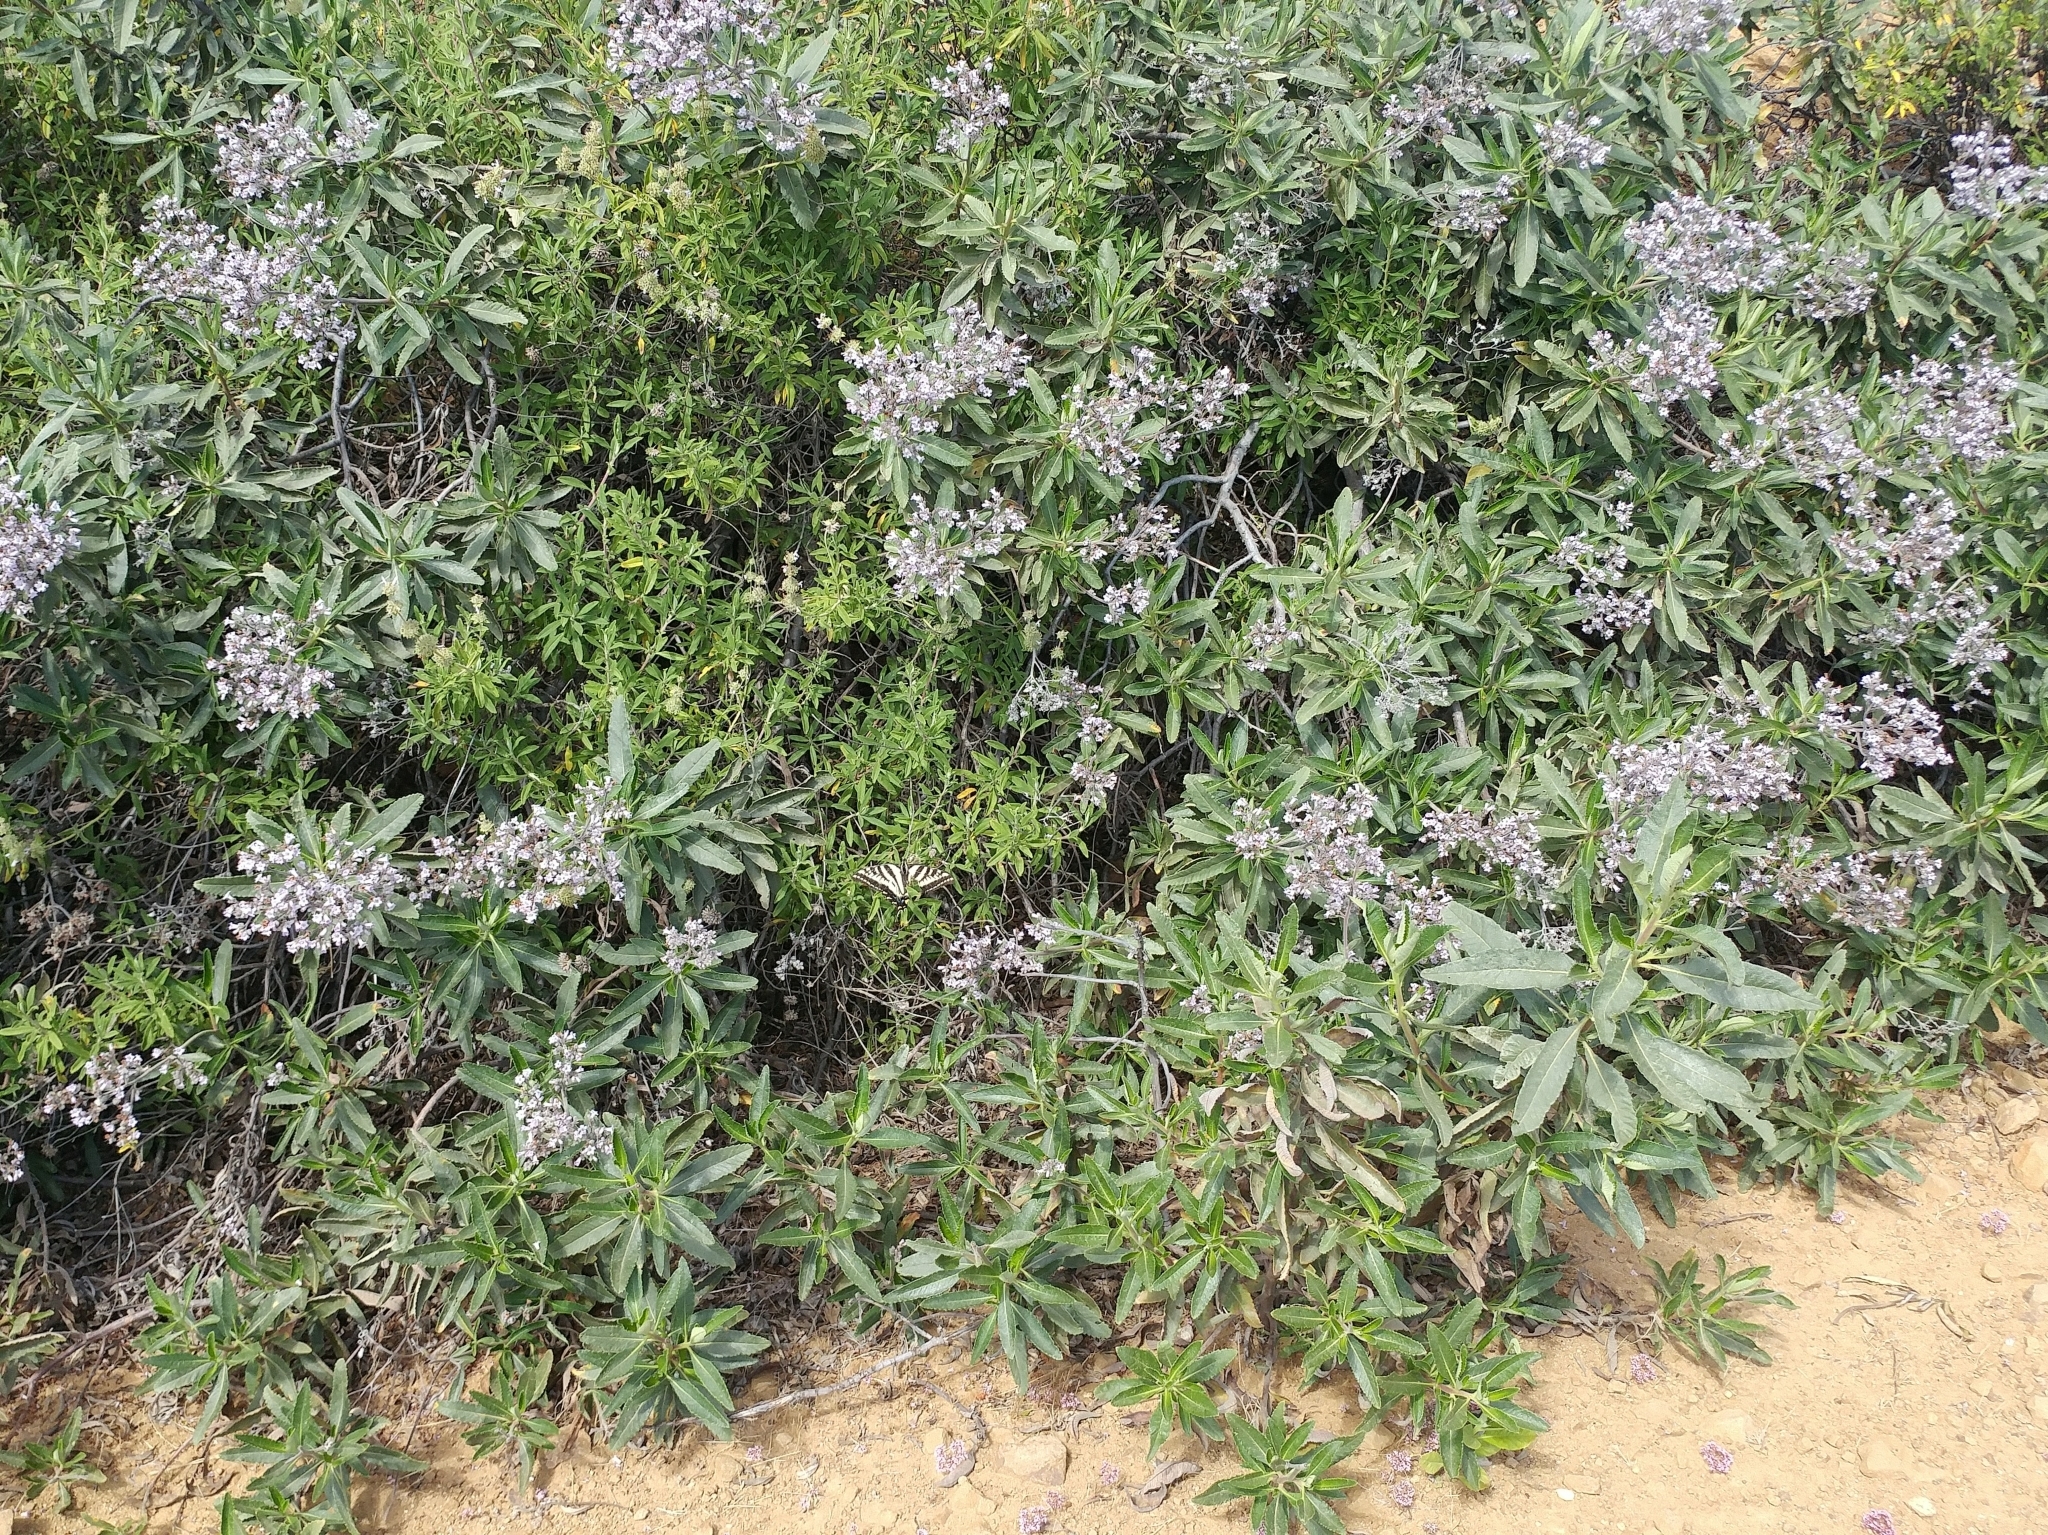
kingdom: Plantae
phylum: Tracheophyta
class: Magnoliopsida
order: Boraginales
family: Namaceae
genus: Eriodictyon
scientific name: Eriodictyon crassifolium
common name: Thick-leaf yerba-santa
